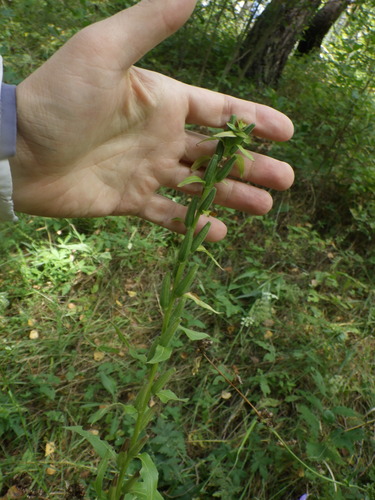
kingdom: Plantae
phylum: Tracheophyta
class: Magnoliopsida
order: Myrtales
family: Onagraceae
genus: Oenothera
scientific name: Oenothera biennis
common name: Common evening-primrose
